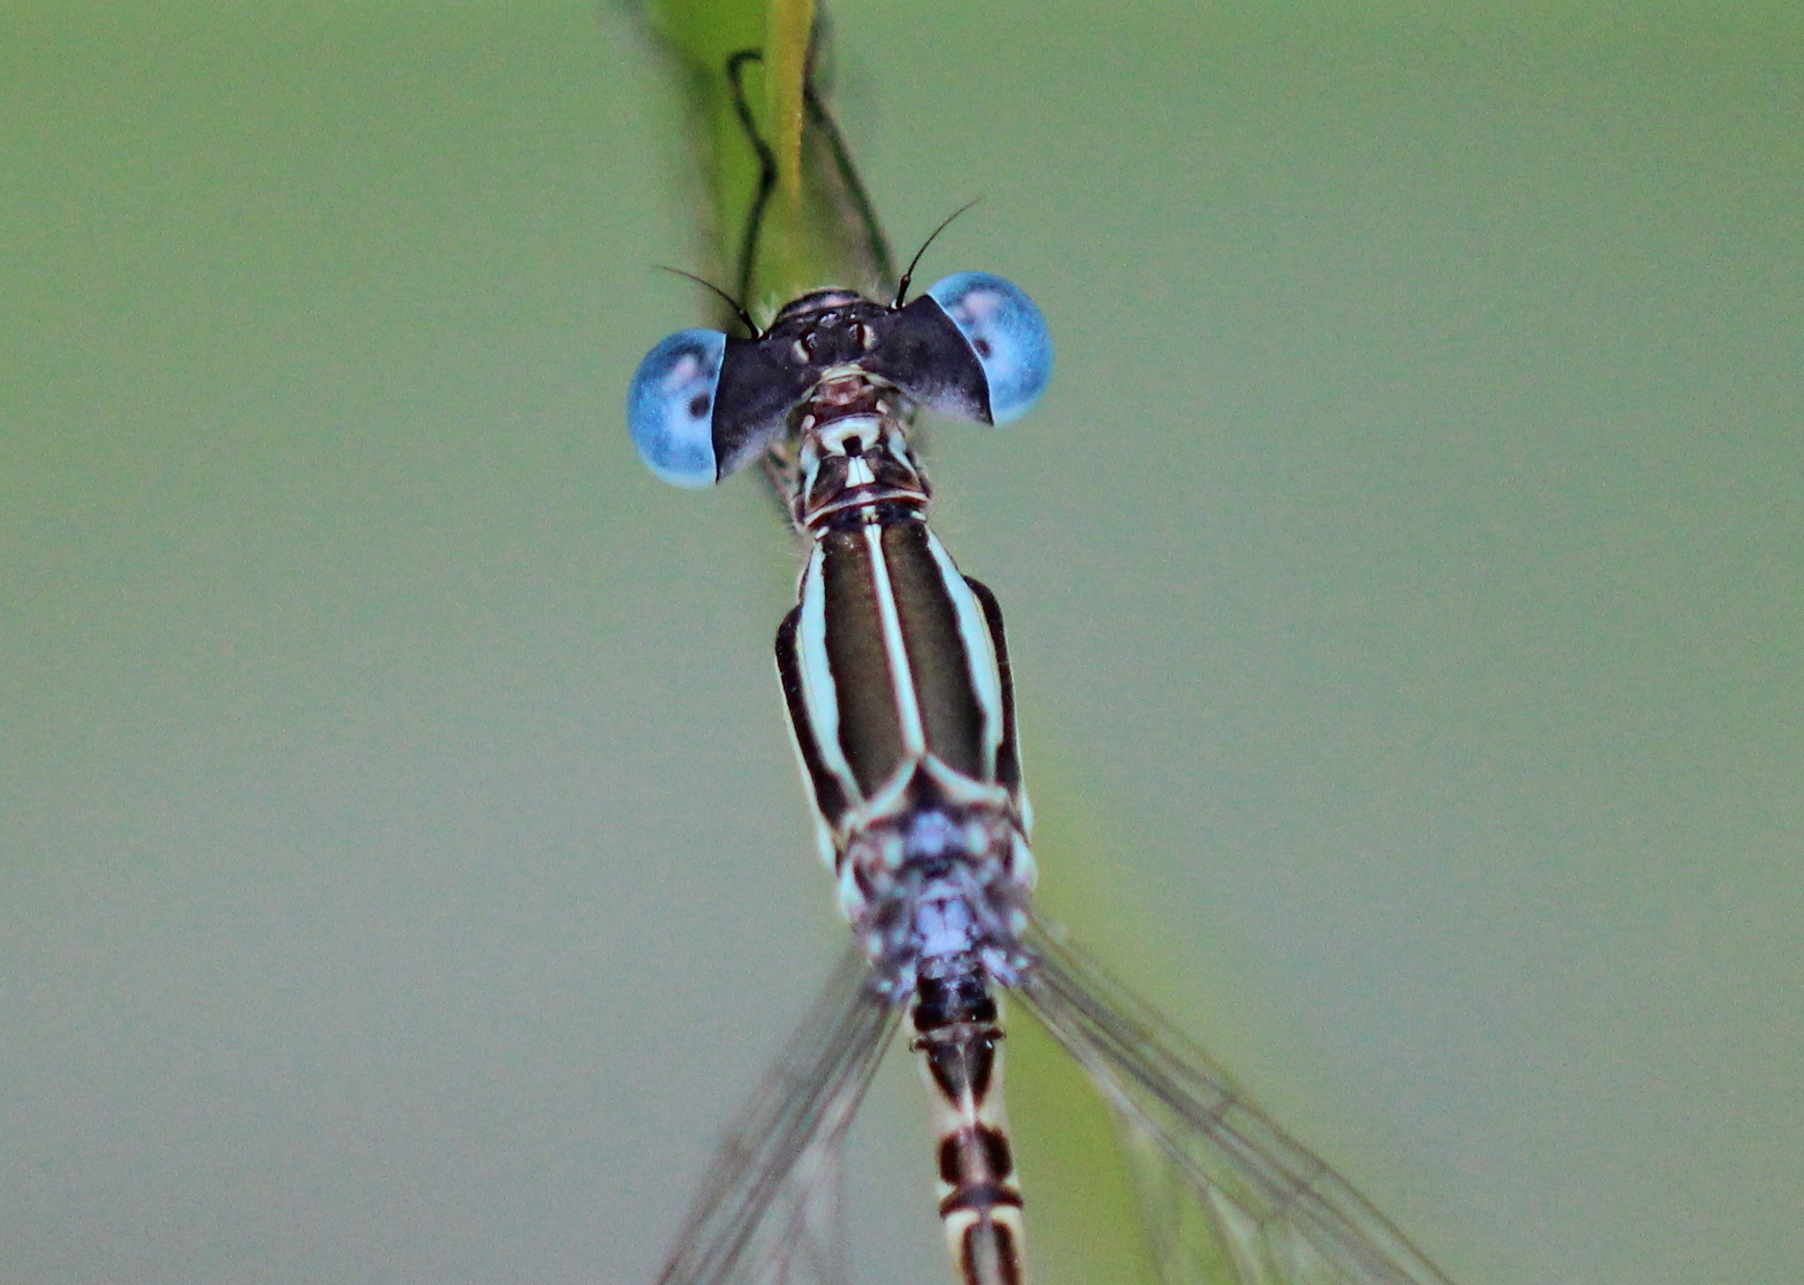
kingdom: Animalia
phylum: Arthropoda
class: Insecta
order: Odonata
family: Lestidae
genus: Lestes
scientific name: Lestes rectangularis
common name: Slender spreadwing
